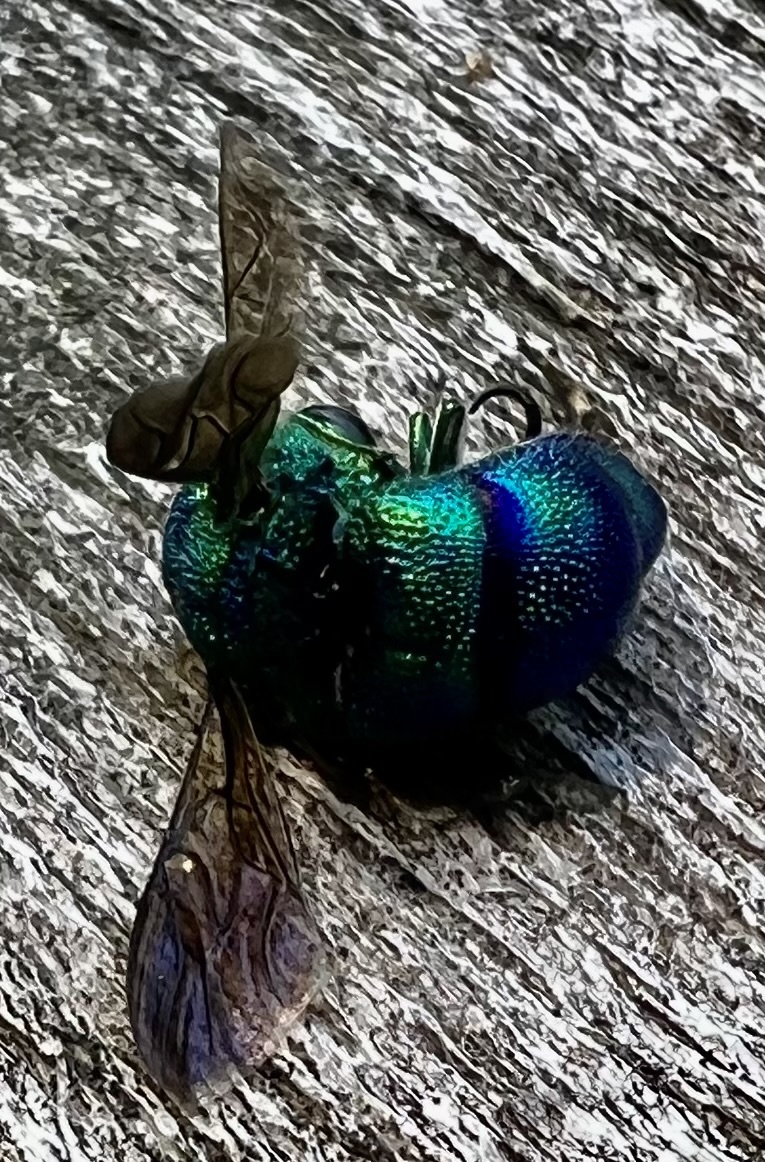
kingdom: Animalia
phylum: Arthropoda
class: Insecta
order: Hymenoptera
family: Chrysididae
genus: Chrysis
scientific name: Chrysis smaragdula
